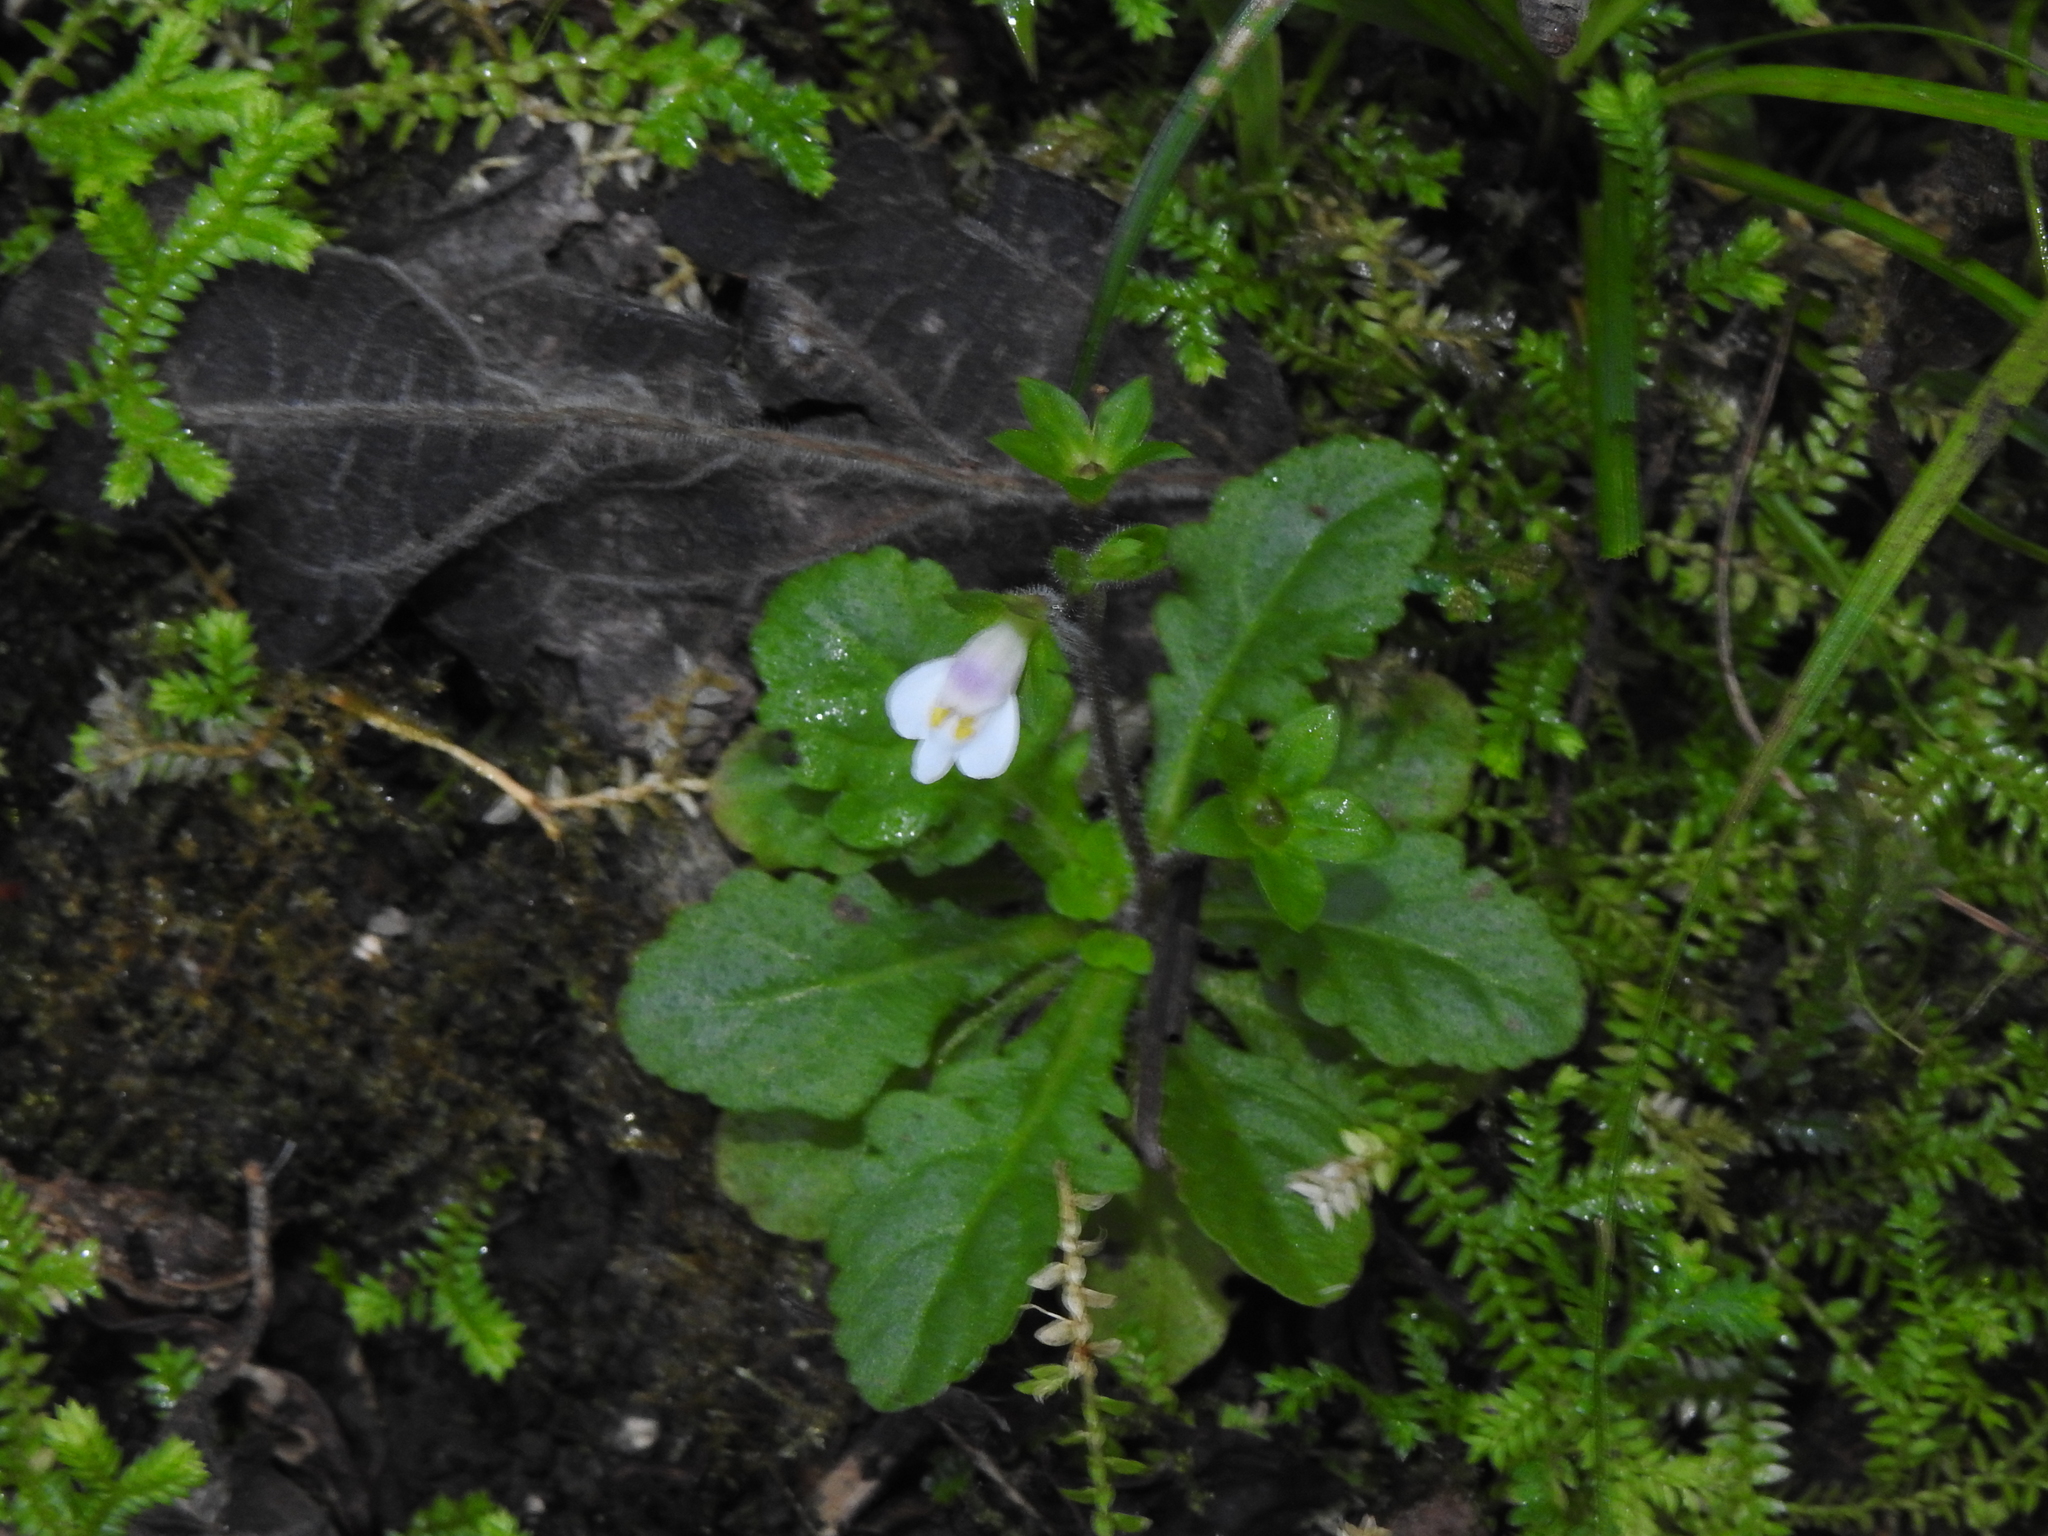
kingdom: Plantae
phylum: Tracheophyta
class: Magnoliopsida
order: Lamiales
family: Mazaceae
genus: Mazus
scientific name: Mazus goodeniifolius
